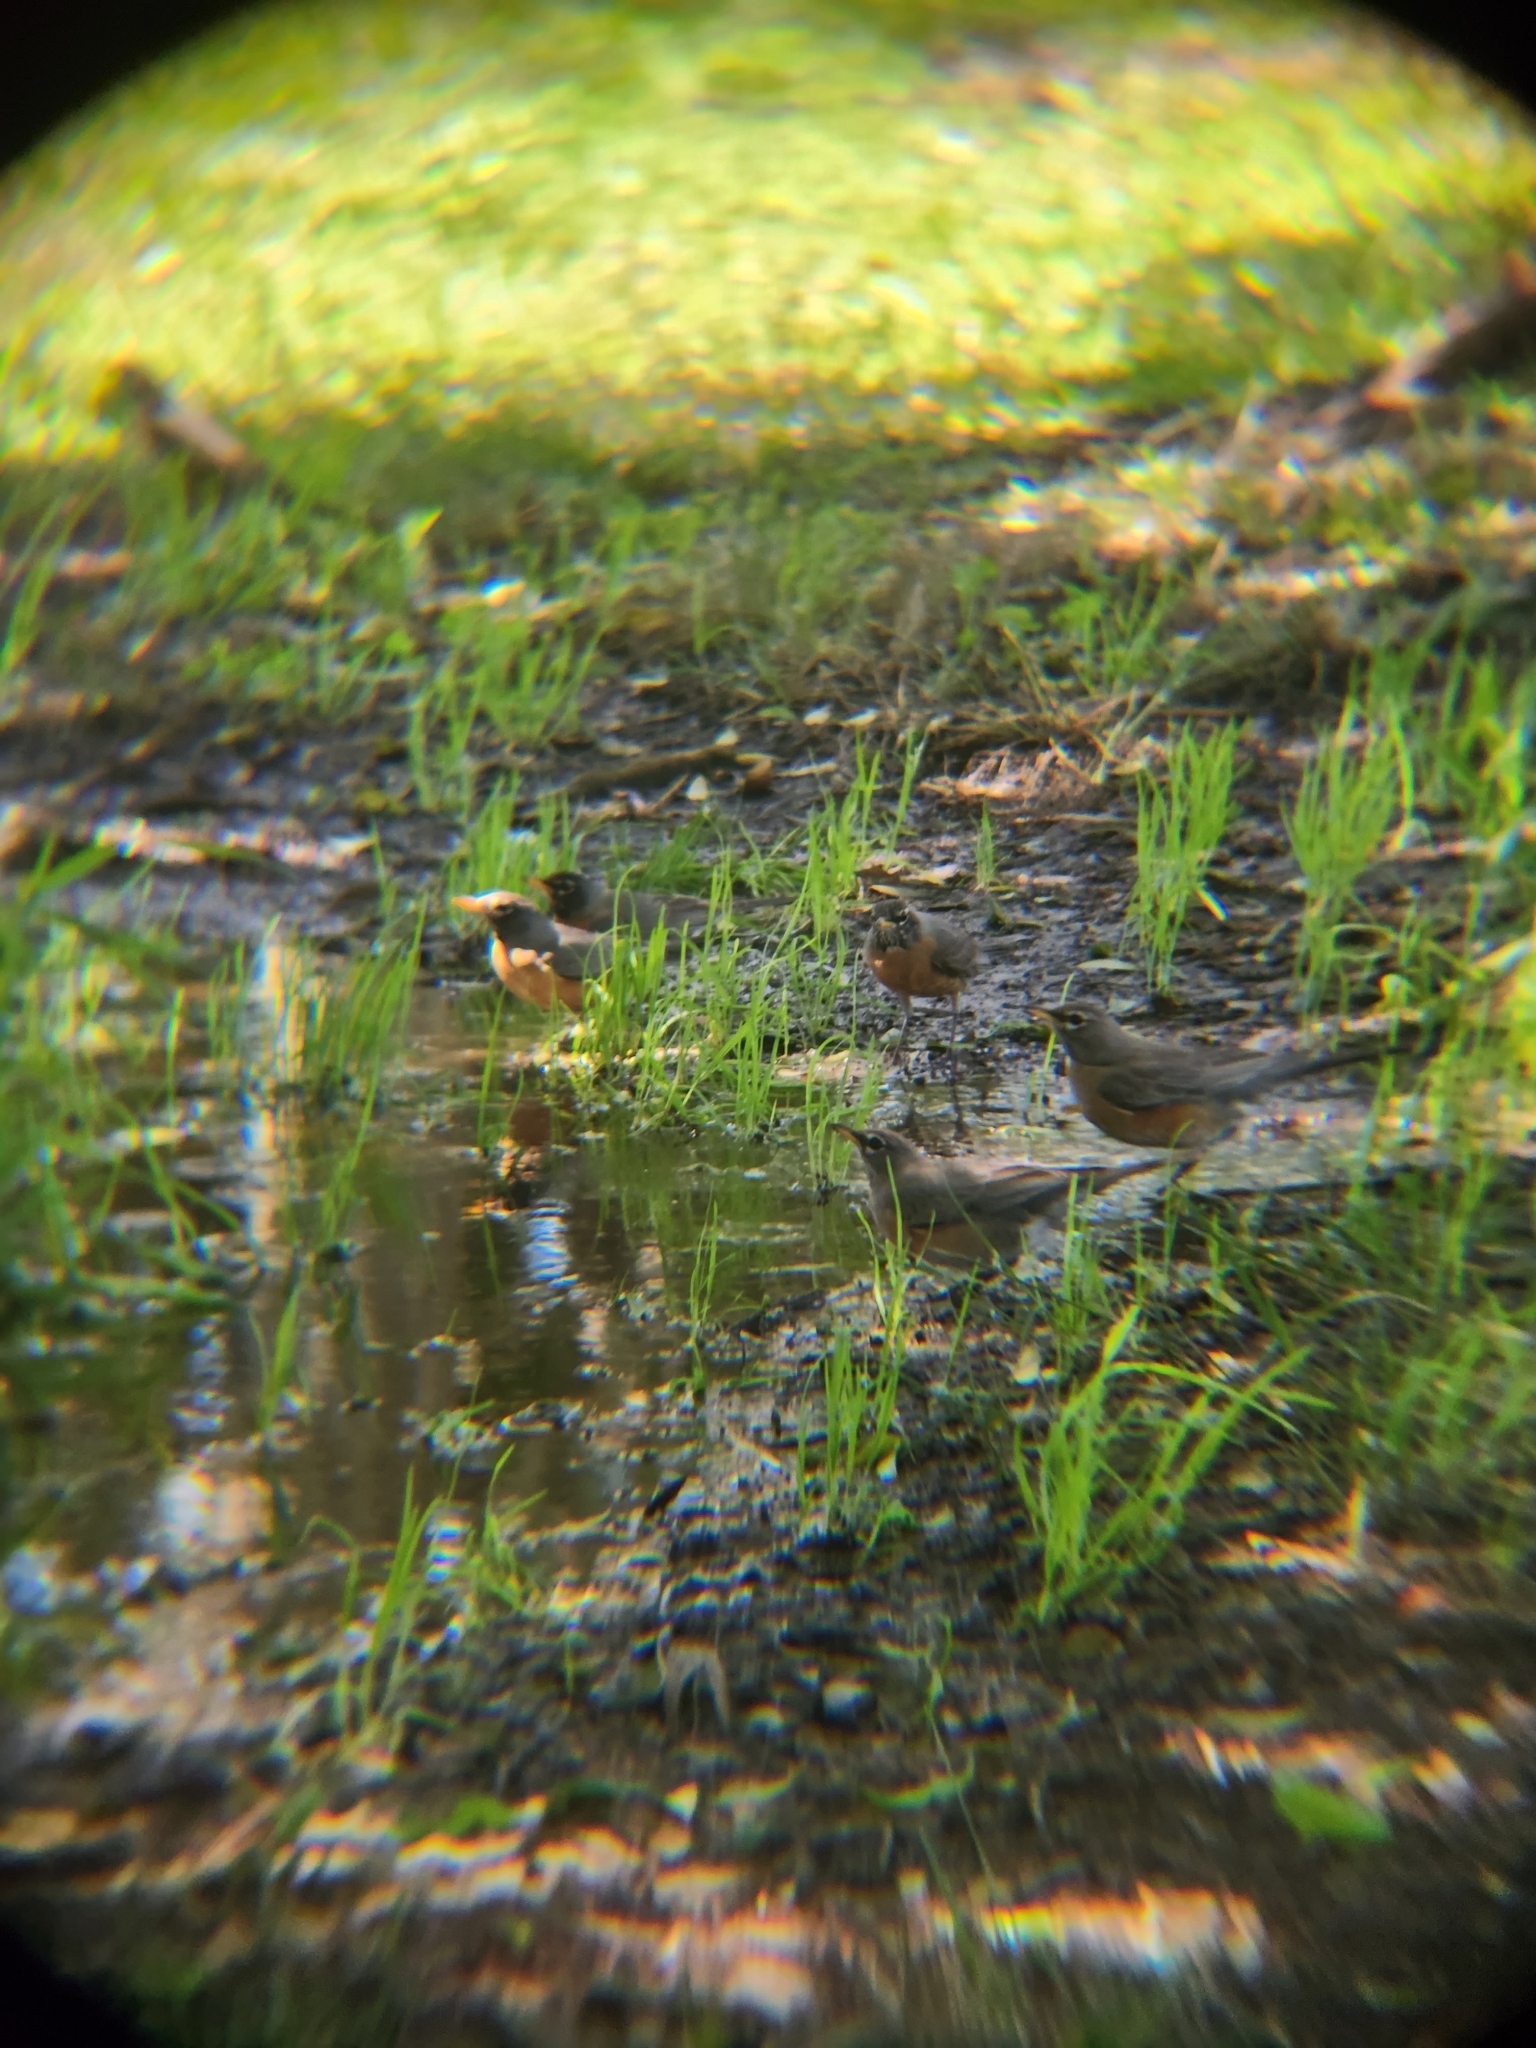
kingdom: Animalia
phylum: Chordata
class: Aves
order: Passeriformes
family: Turdidae
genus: Turdus
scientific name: Turdus migratorius
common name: American robin
